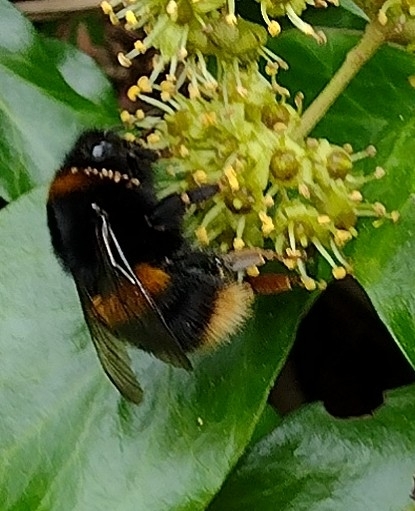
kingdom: Animalia
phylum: Arthropoda
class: Insecta
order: Hymenoptera
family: Apidae
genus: Bombus
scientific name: Bombus terrestris
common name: Buff-tailed bumblebee
